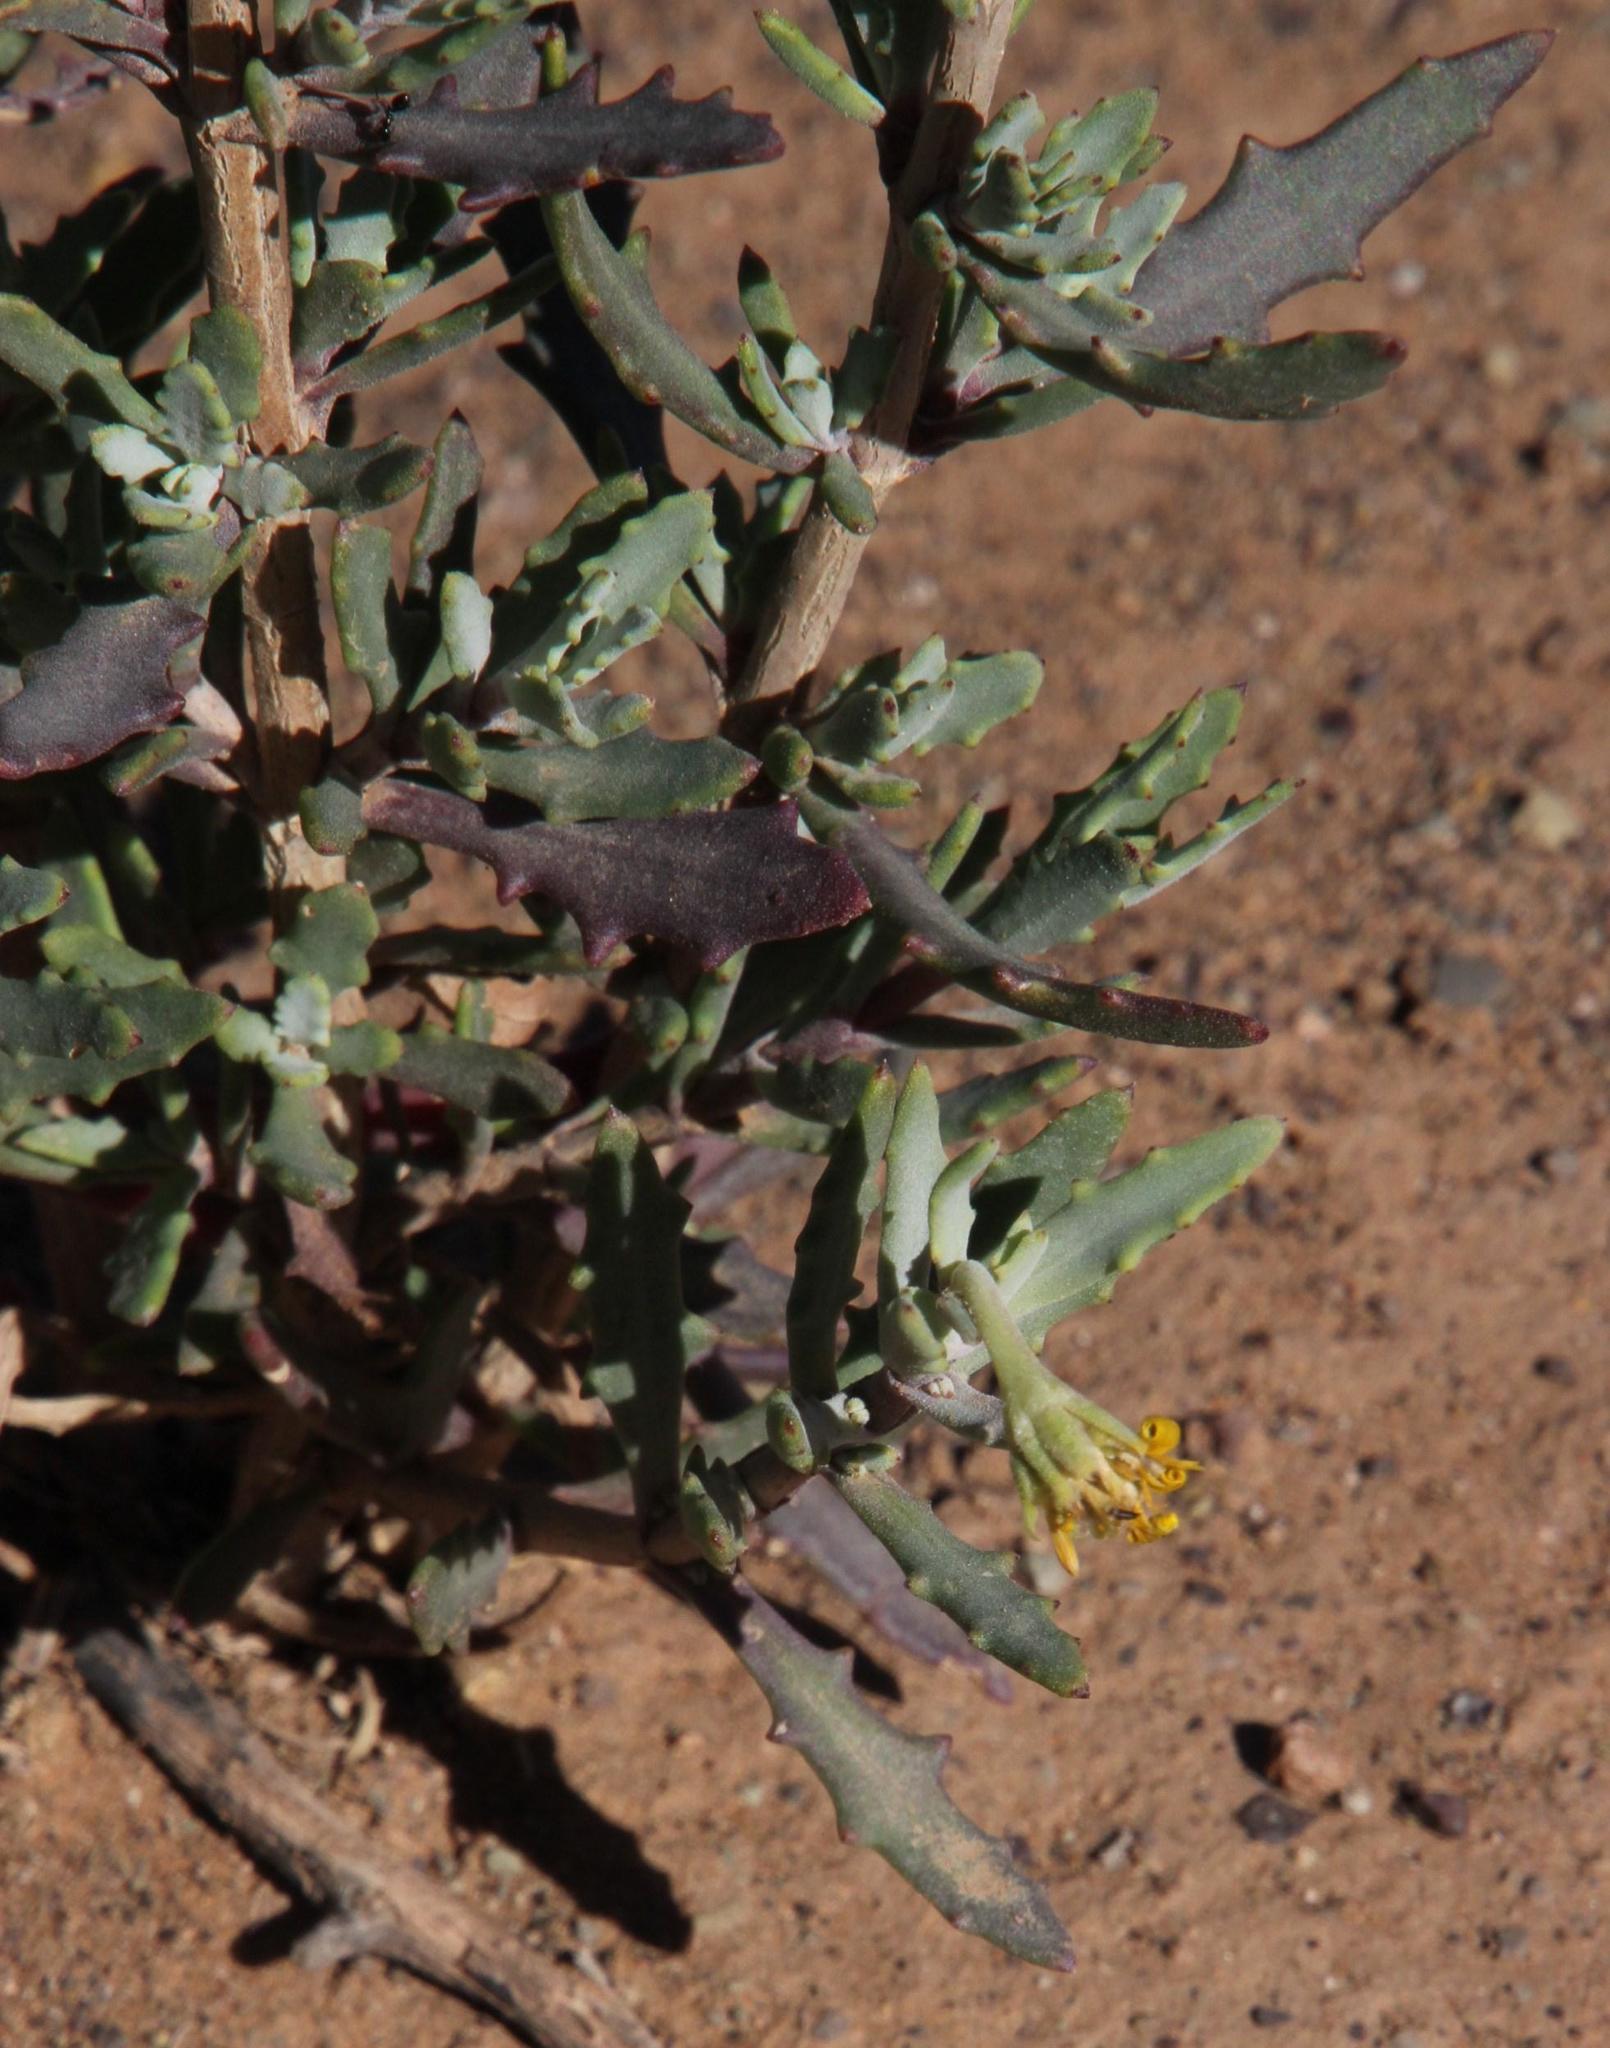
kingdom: Plantae
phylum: Tracheophyta
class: Magnoliopsida
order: Asterales
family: Asteraceae
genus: Osteospermum
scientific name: Osteospermum sinuatum
